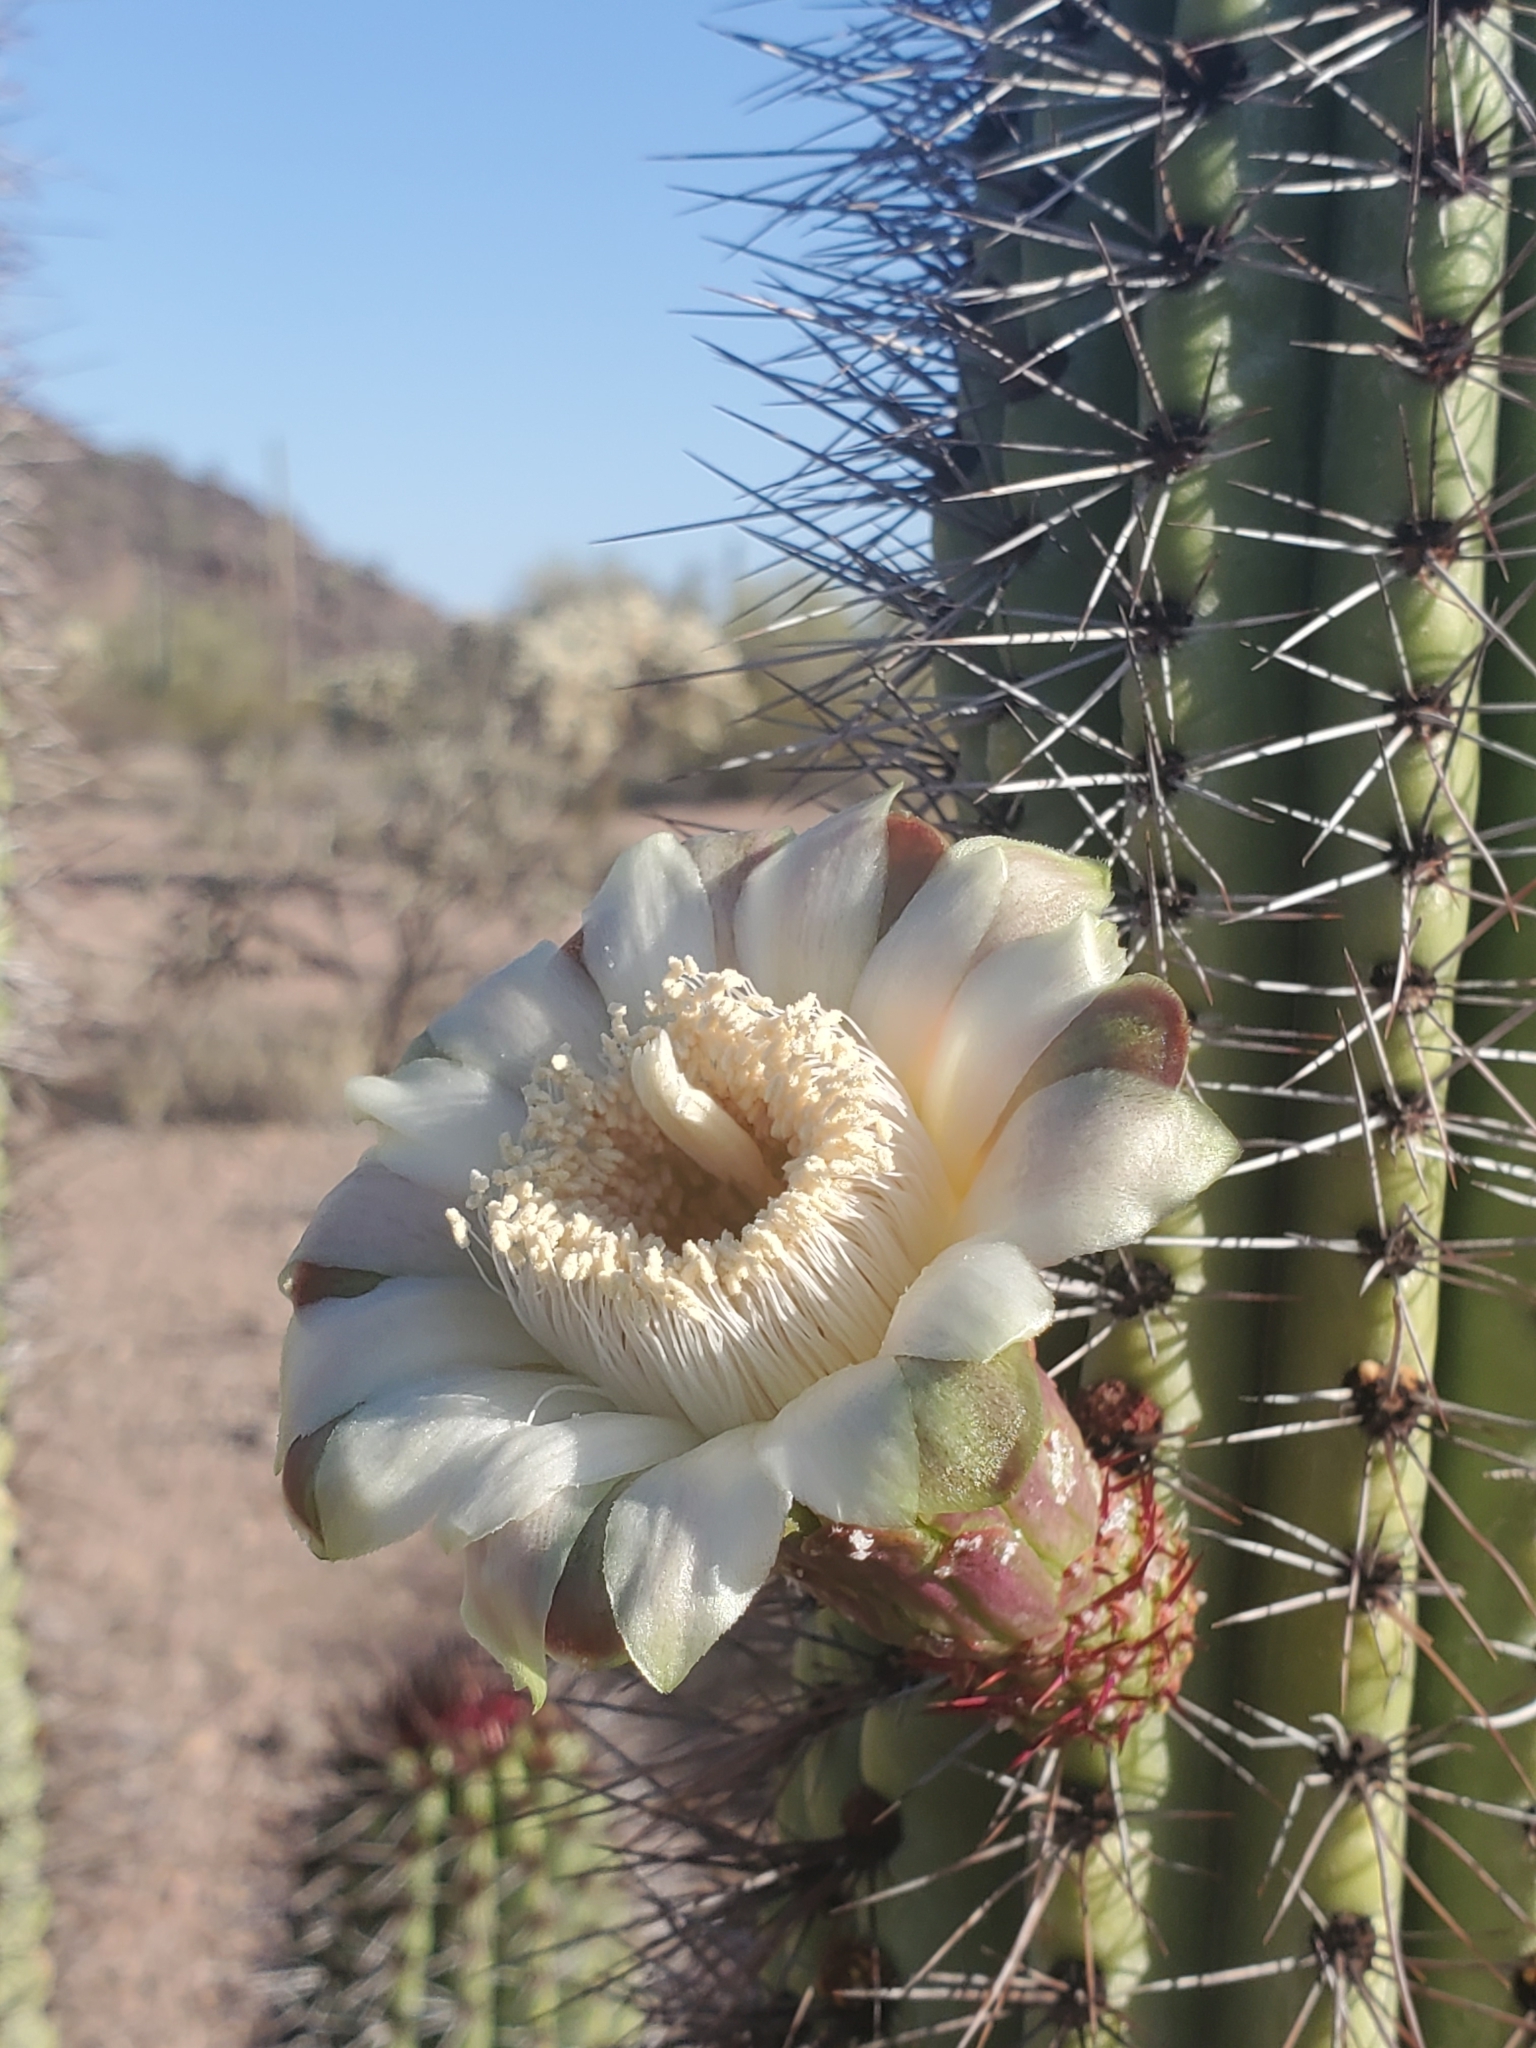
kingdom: Plantae
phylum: Tracheophyta
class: Magnoliopsida
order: Caryophyllales
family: Cactaceae
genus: Stenocereus
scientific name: Stenocereus thurberi
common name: Organ pipe cactus
